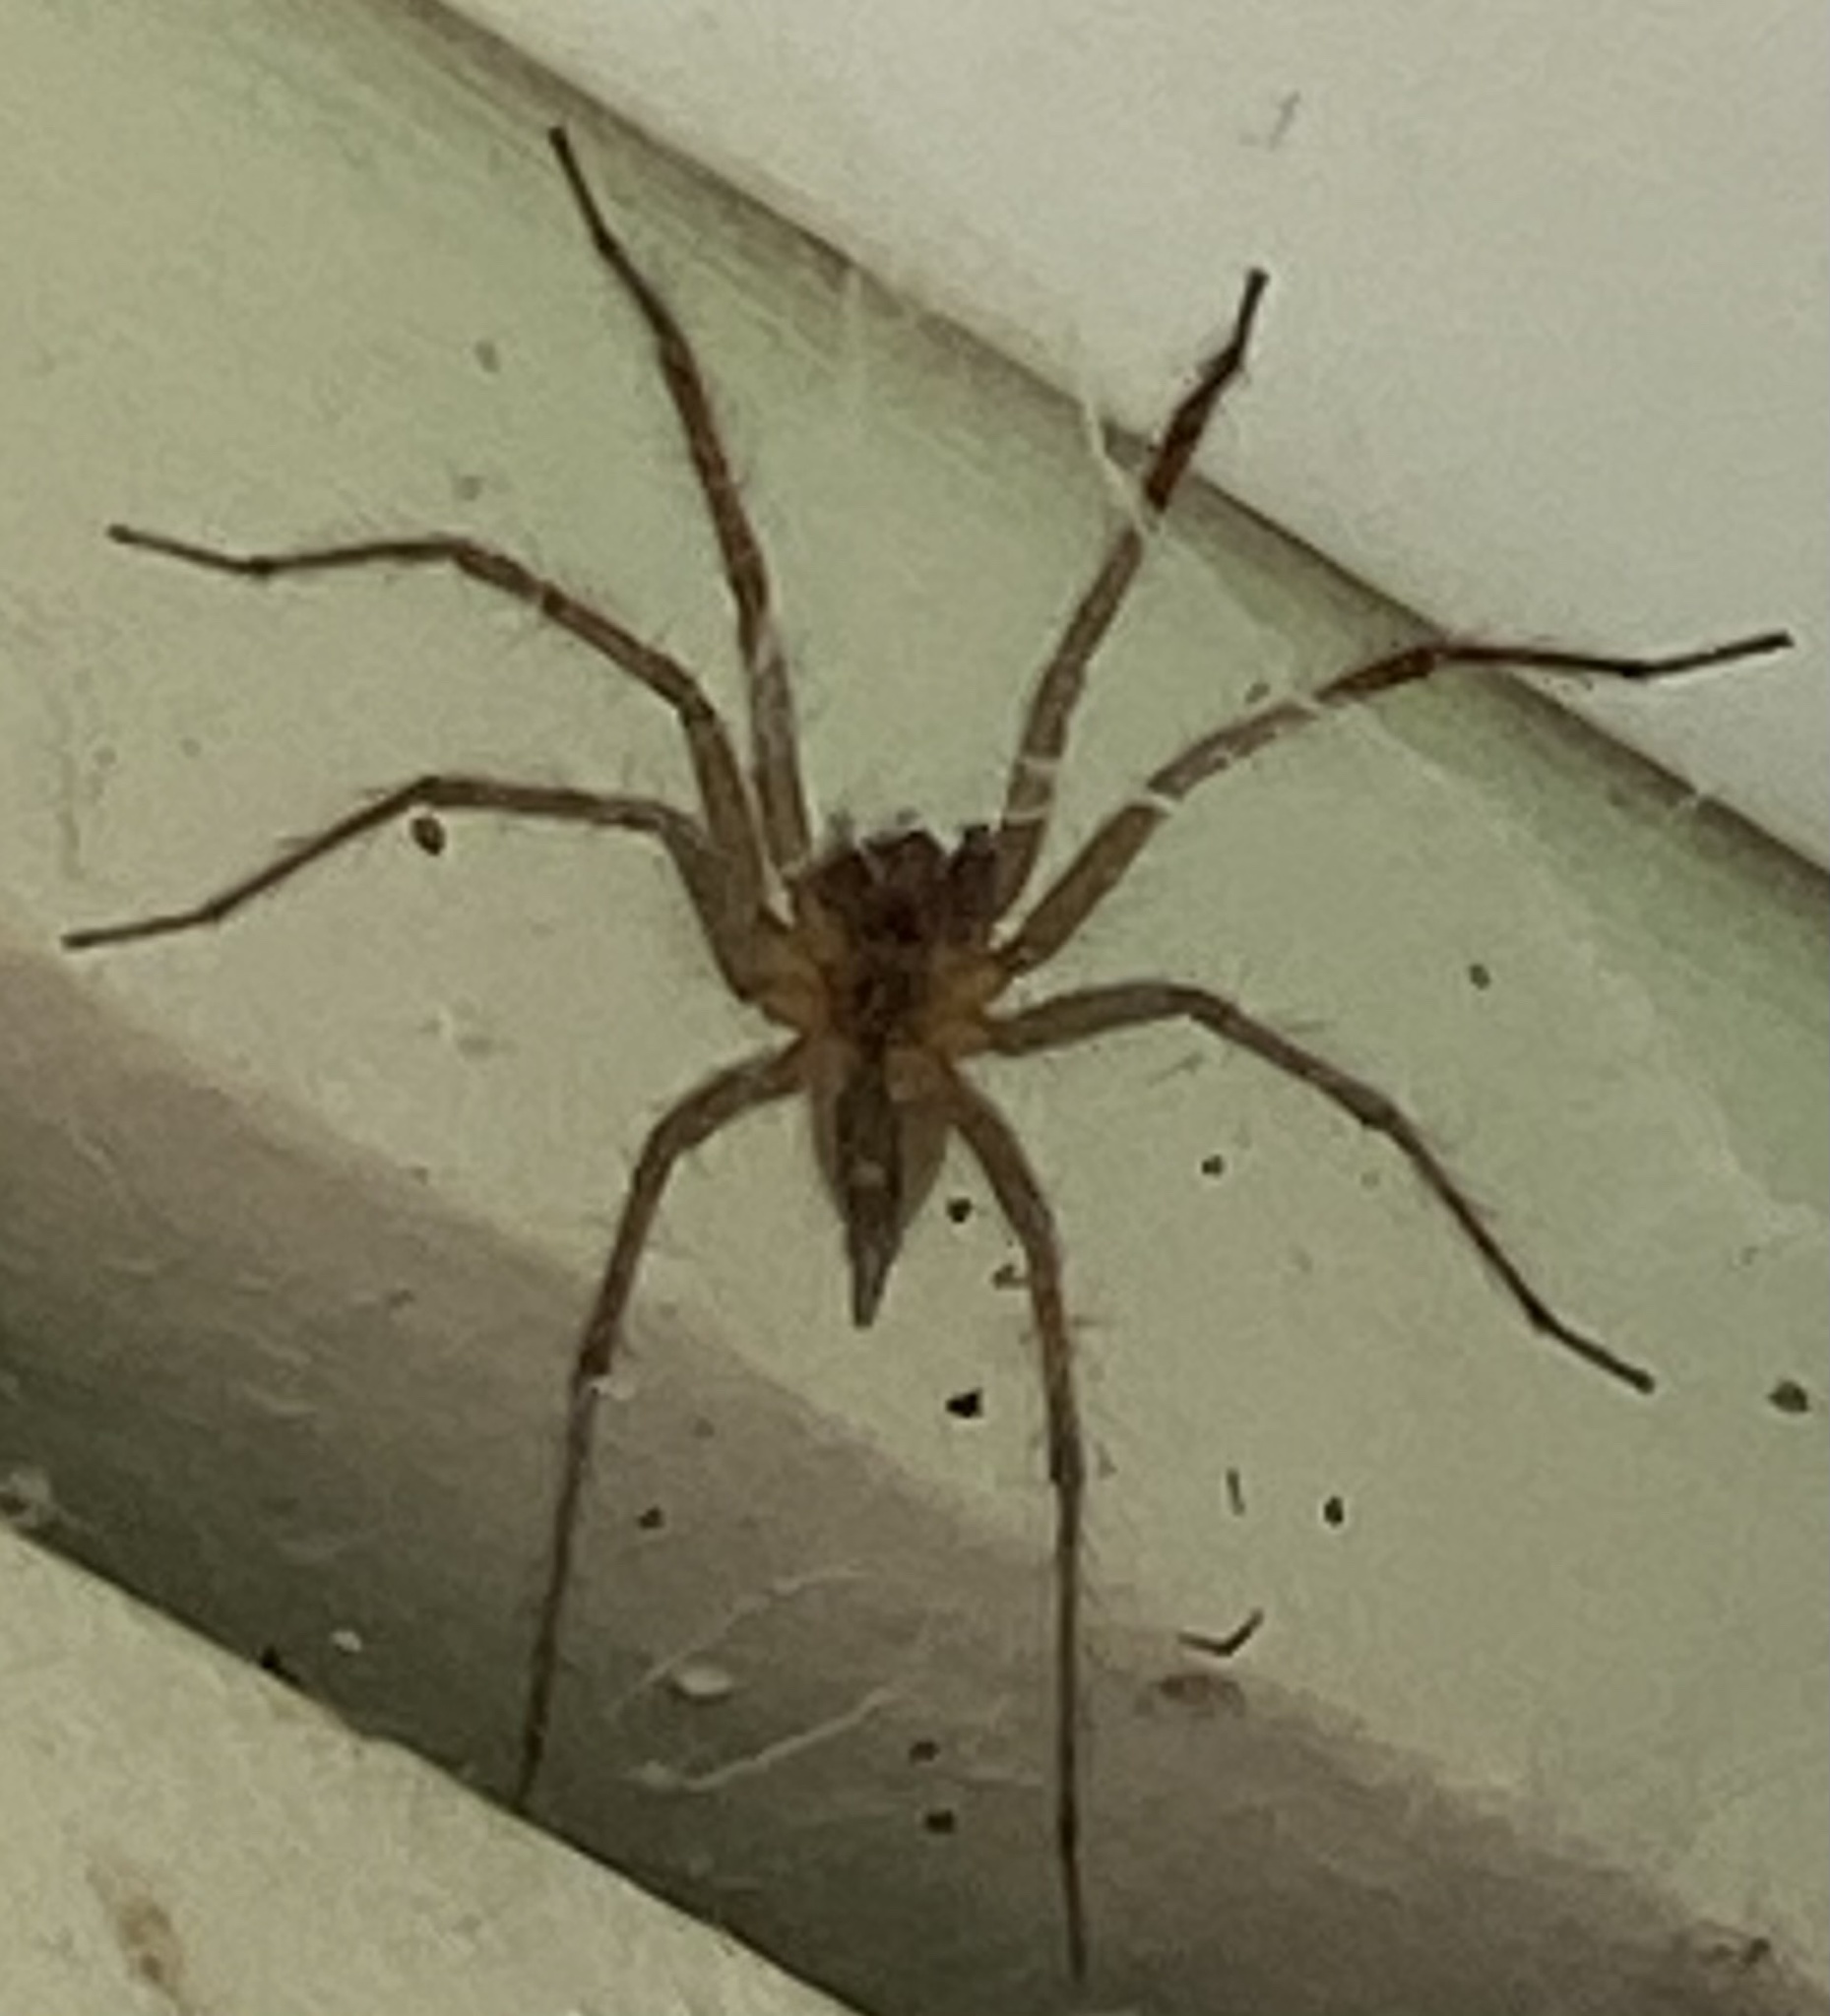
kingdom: Animalia
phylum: Arthropoda
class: Arachnida
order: Araneae
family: Agelenidae
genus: Agelenopsis
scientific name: Agelenopsis
